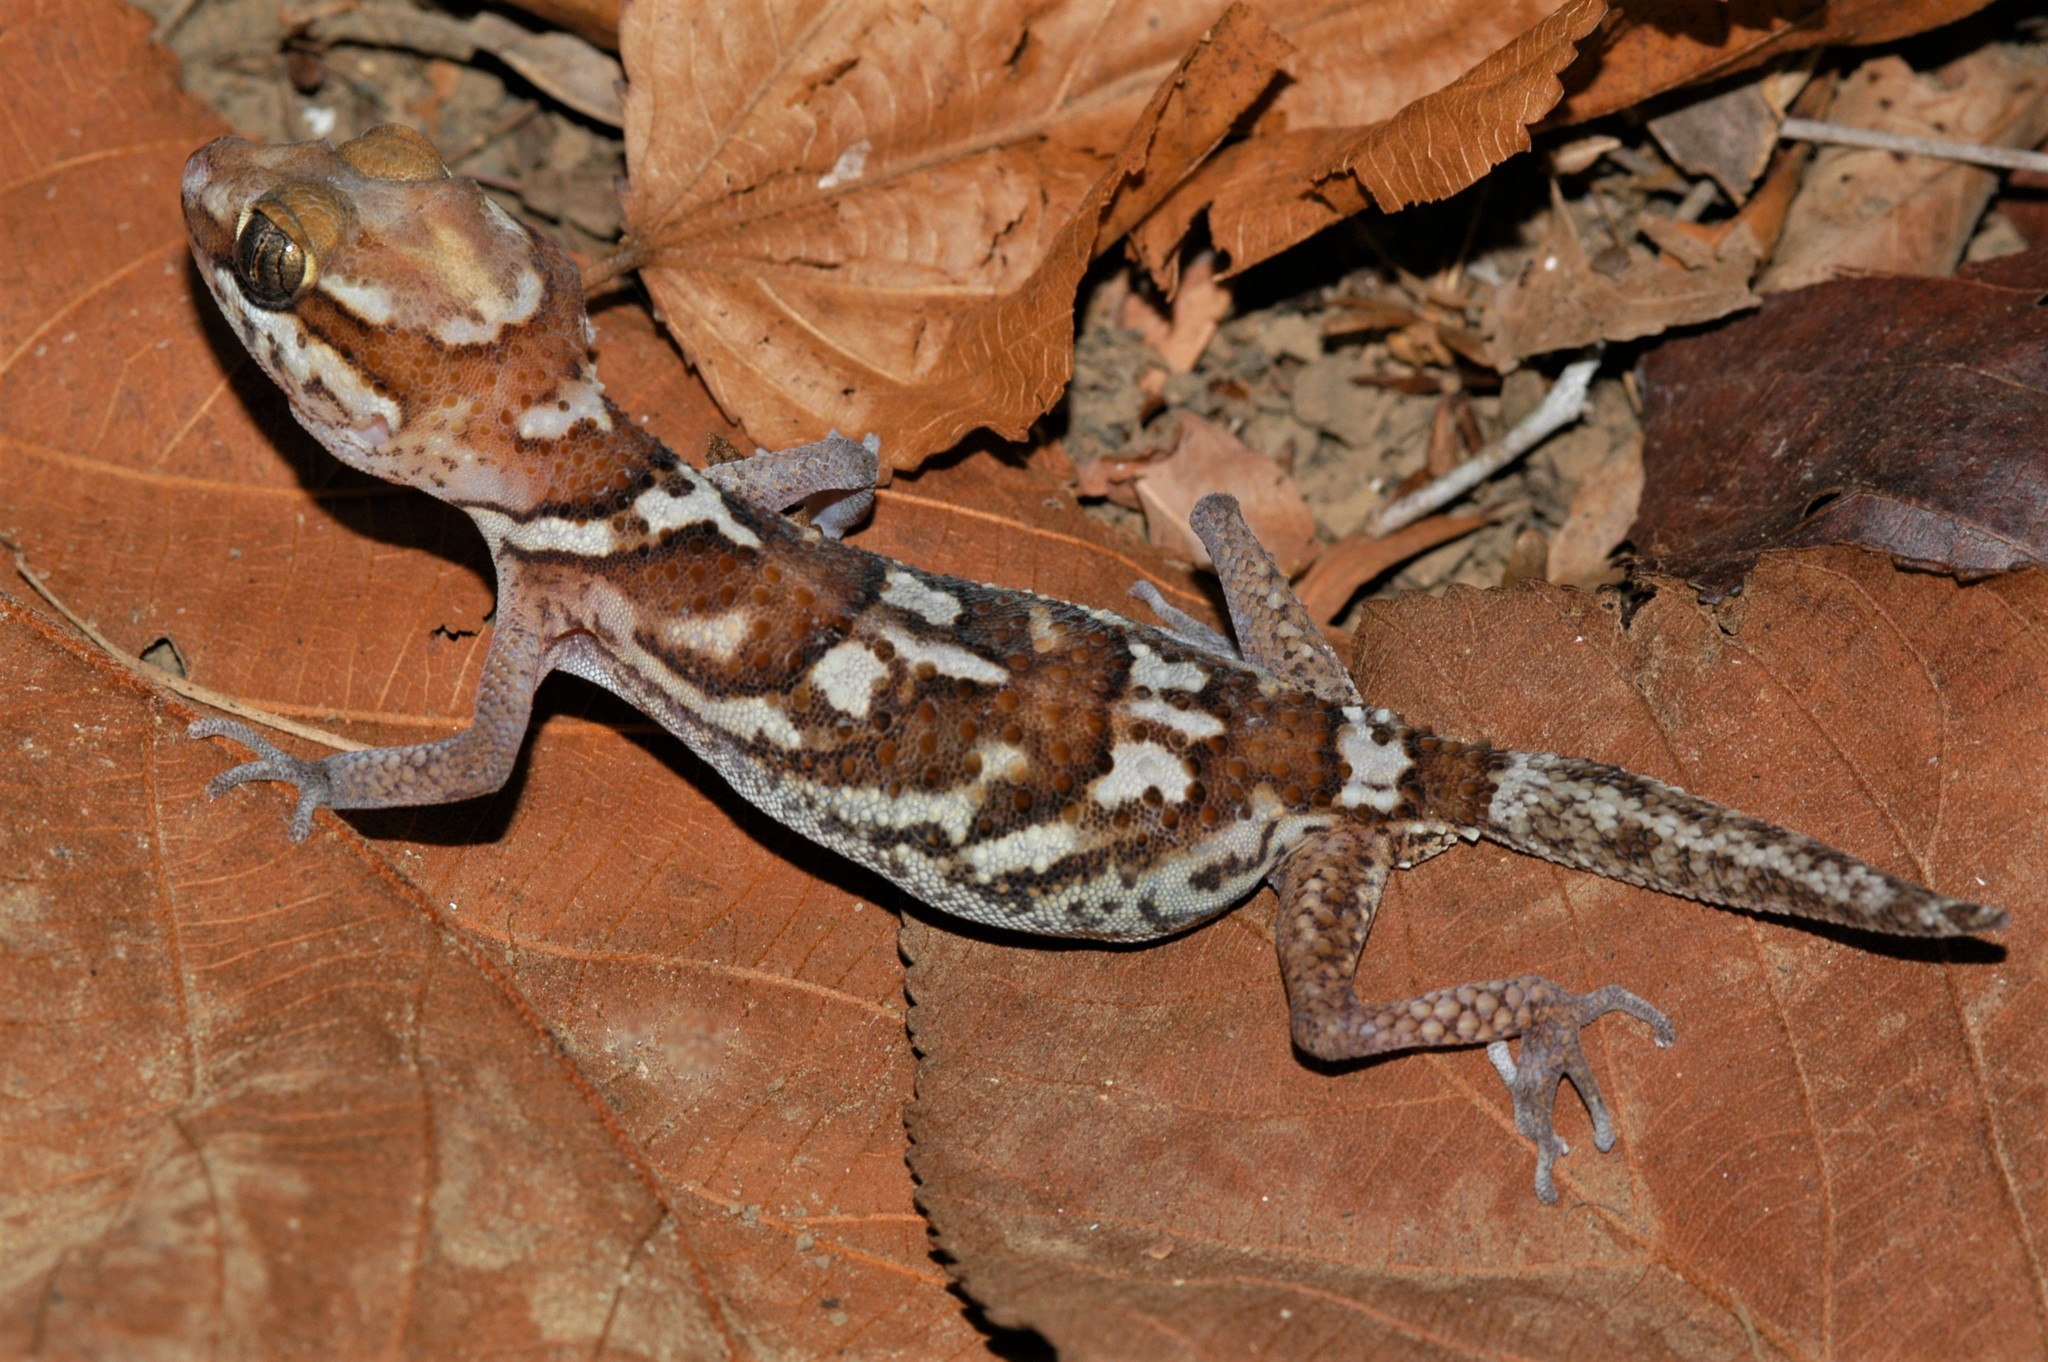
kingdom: Animalia
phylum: Chordata
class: Squamata
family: Gekkonidae
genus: Paroedura
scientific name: Paroedura picta
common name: Panther gecko
